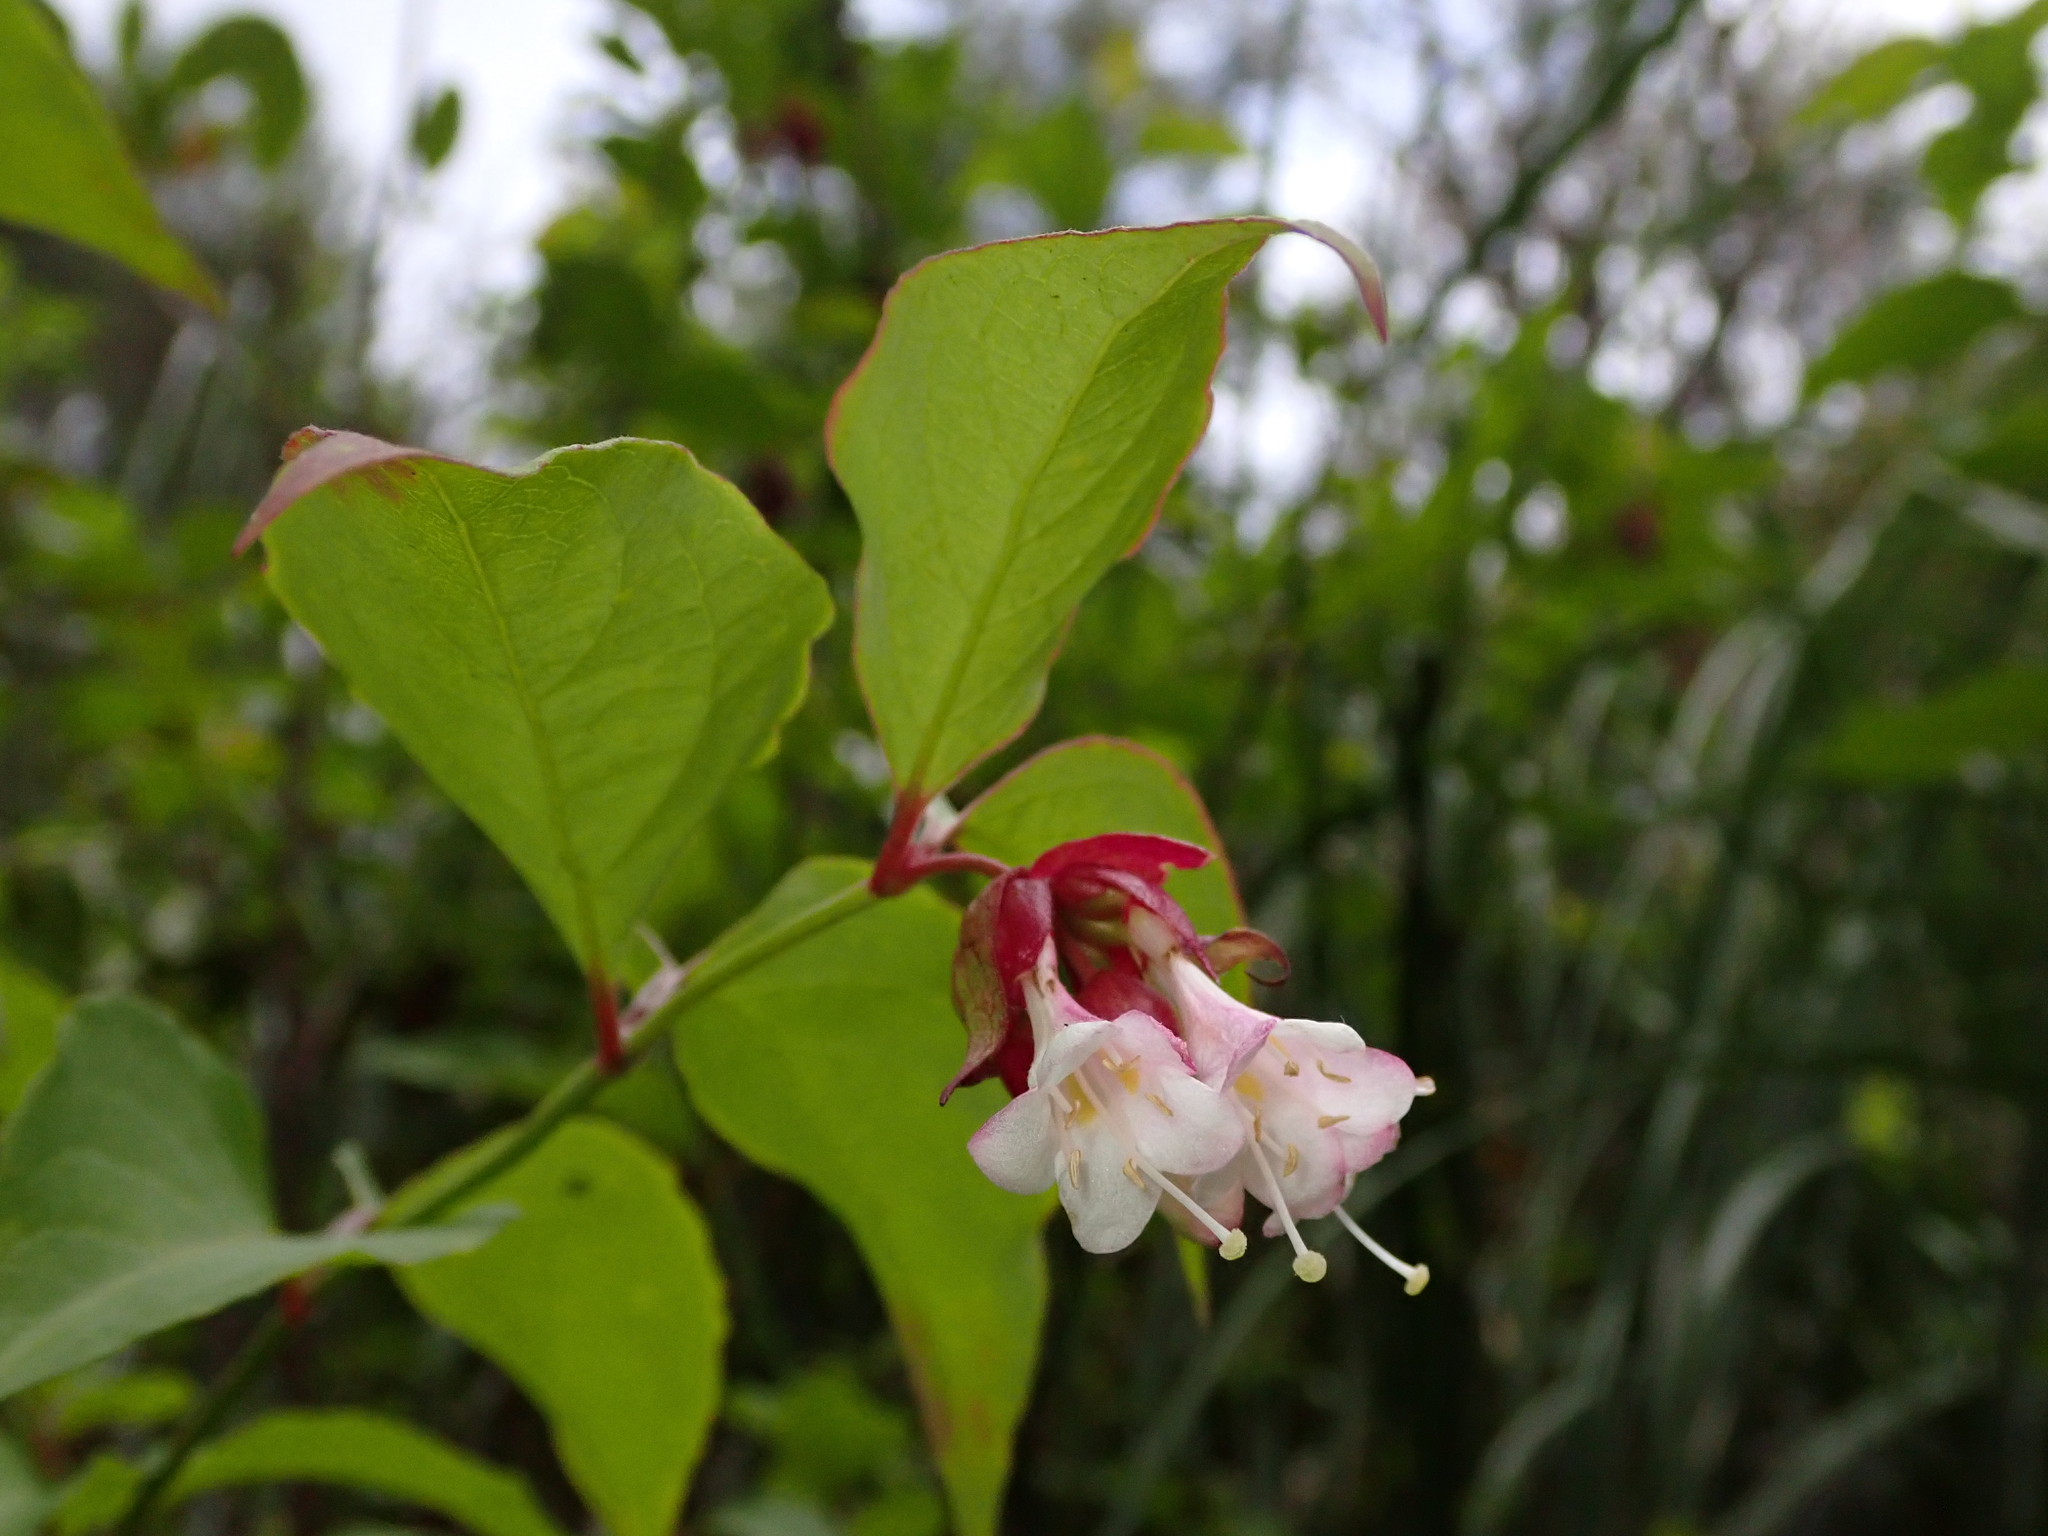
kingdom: Plantae
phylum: Tracheophyta
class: Magnoliopsida
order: Dipsacales
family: Caprifoliaceae
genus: Leycesteria
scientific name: Leycesteria formosa
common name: Himalayan honeysuckle
